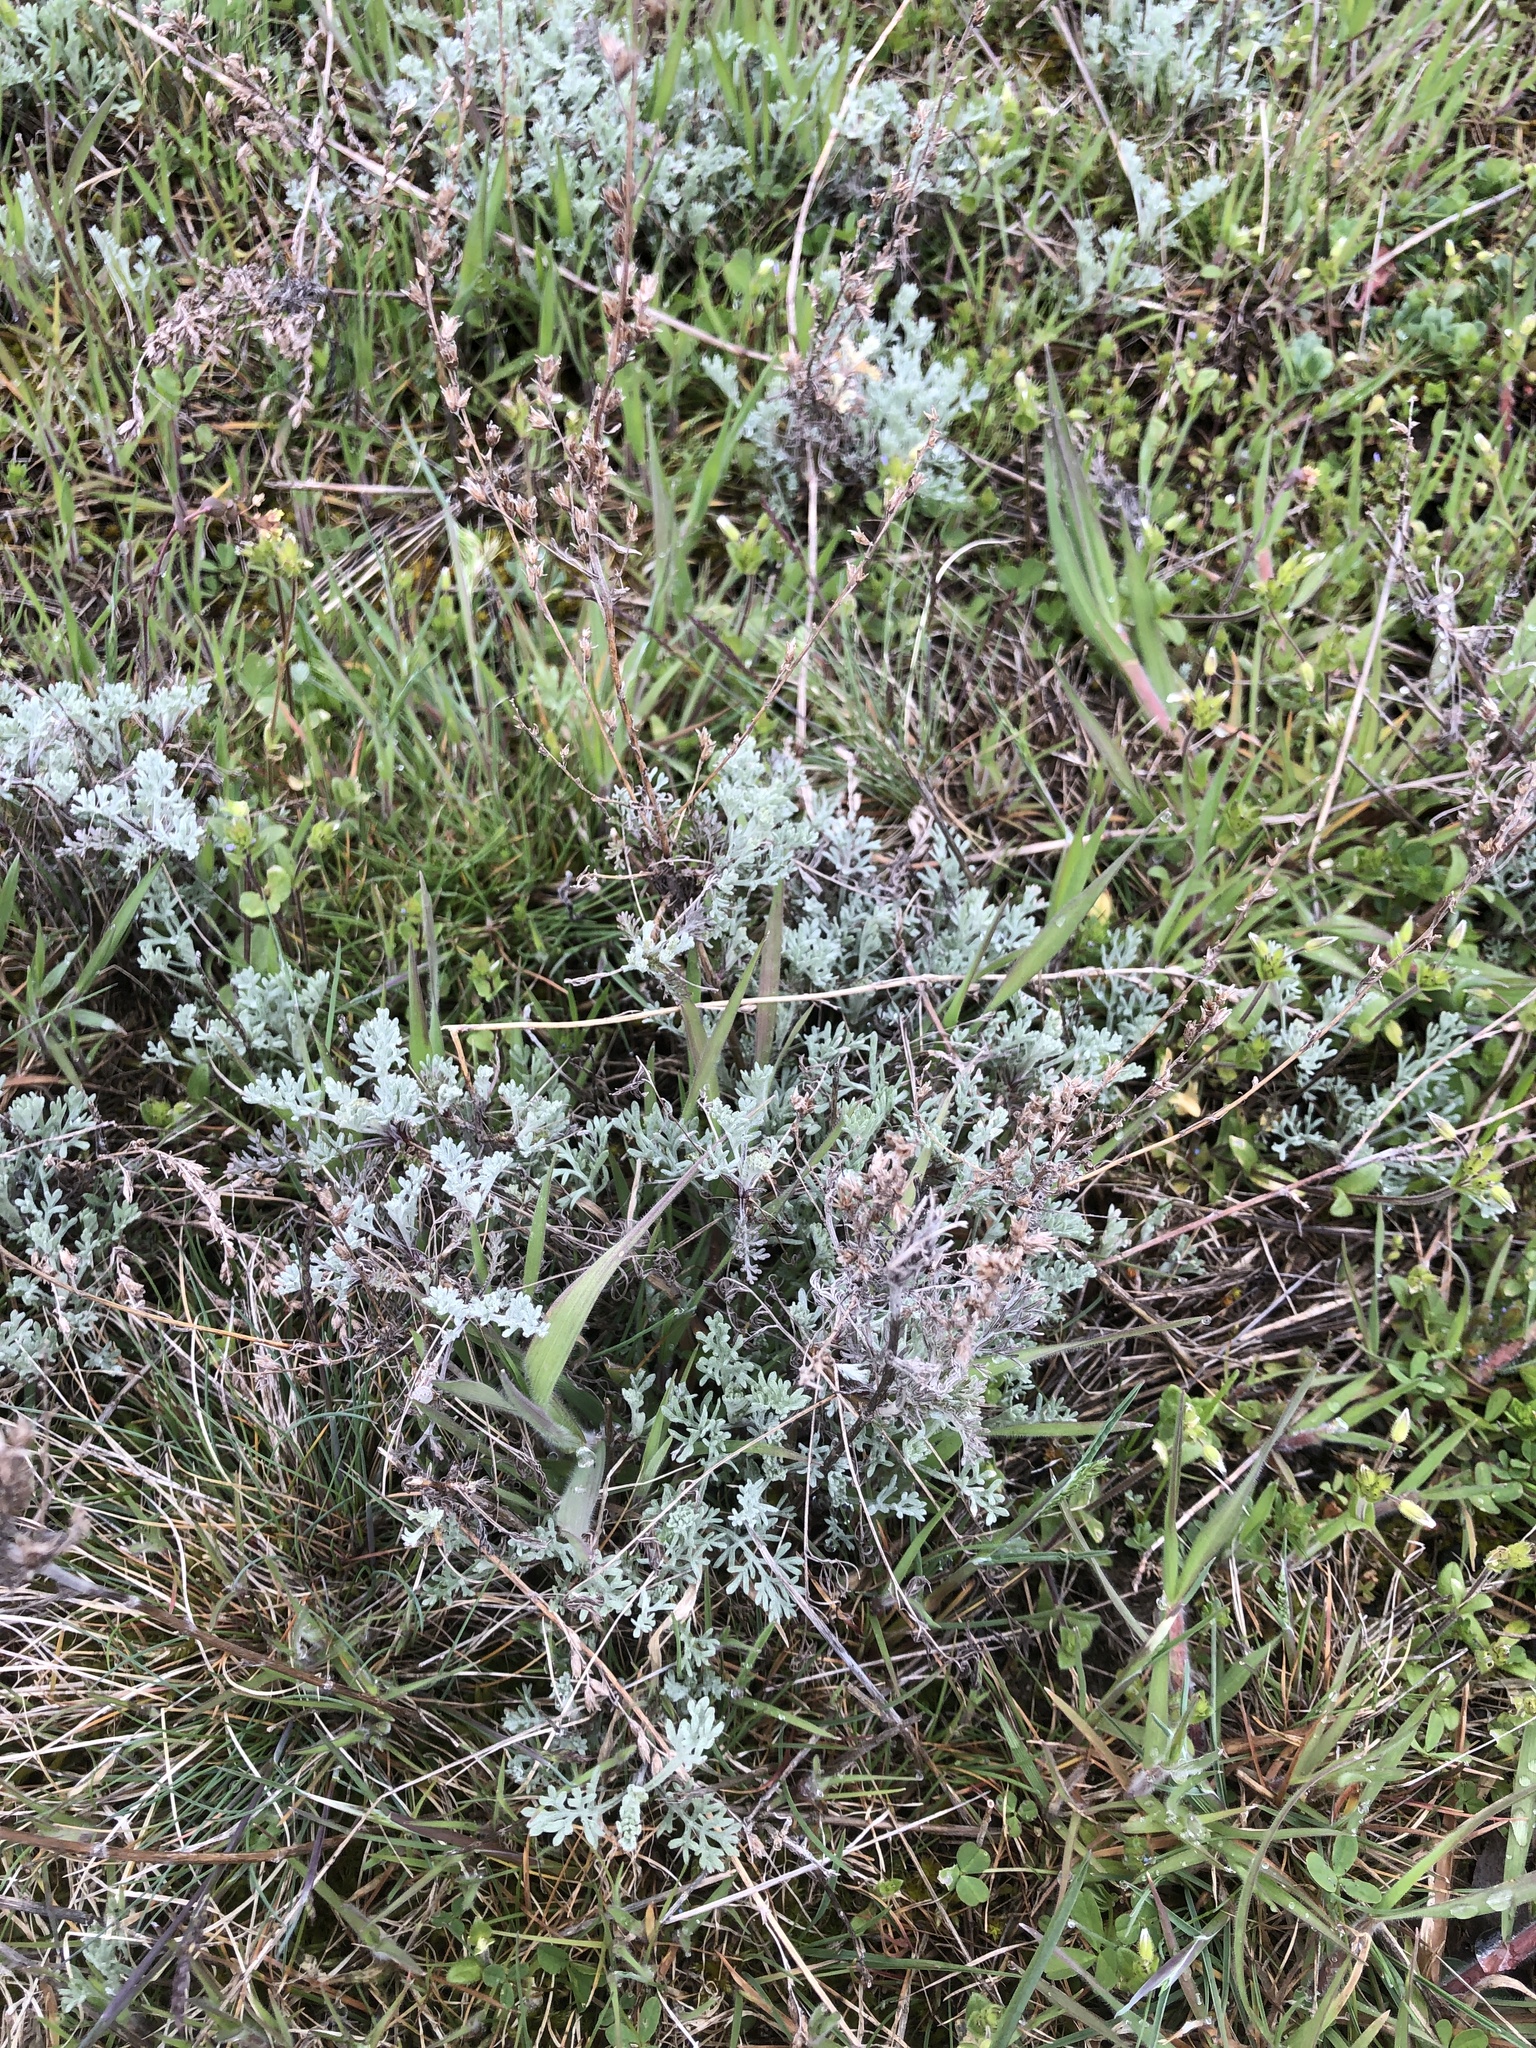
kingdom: Plantae
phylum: Tracheophyta
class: Magnoliopsida
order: Asterales
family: Asteraceae
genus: Artemisia
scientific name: Artemisia santonicum
